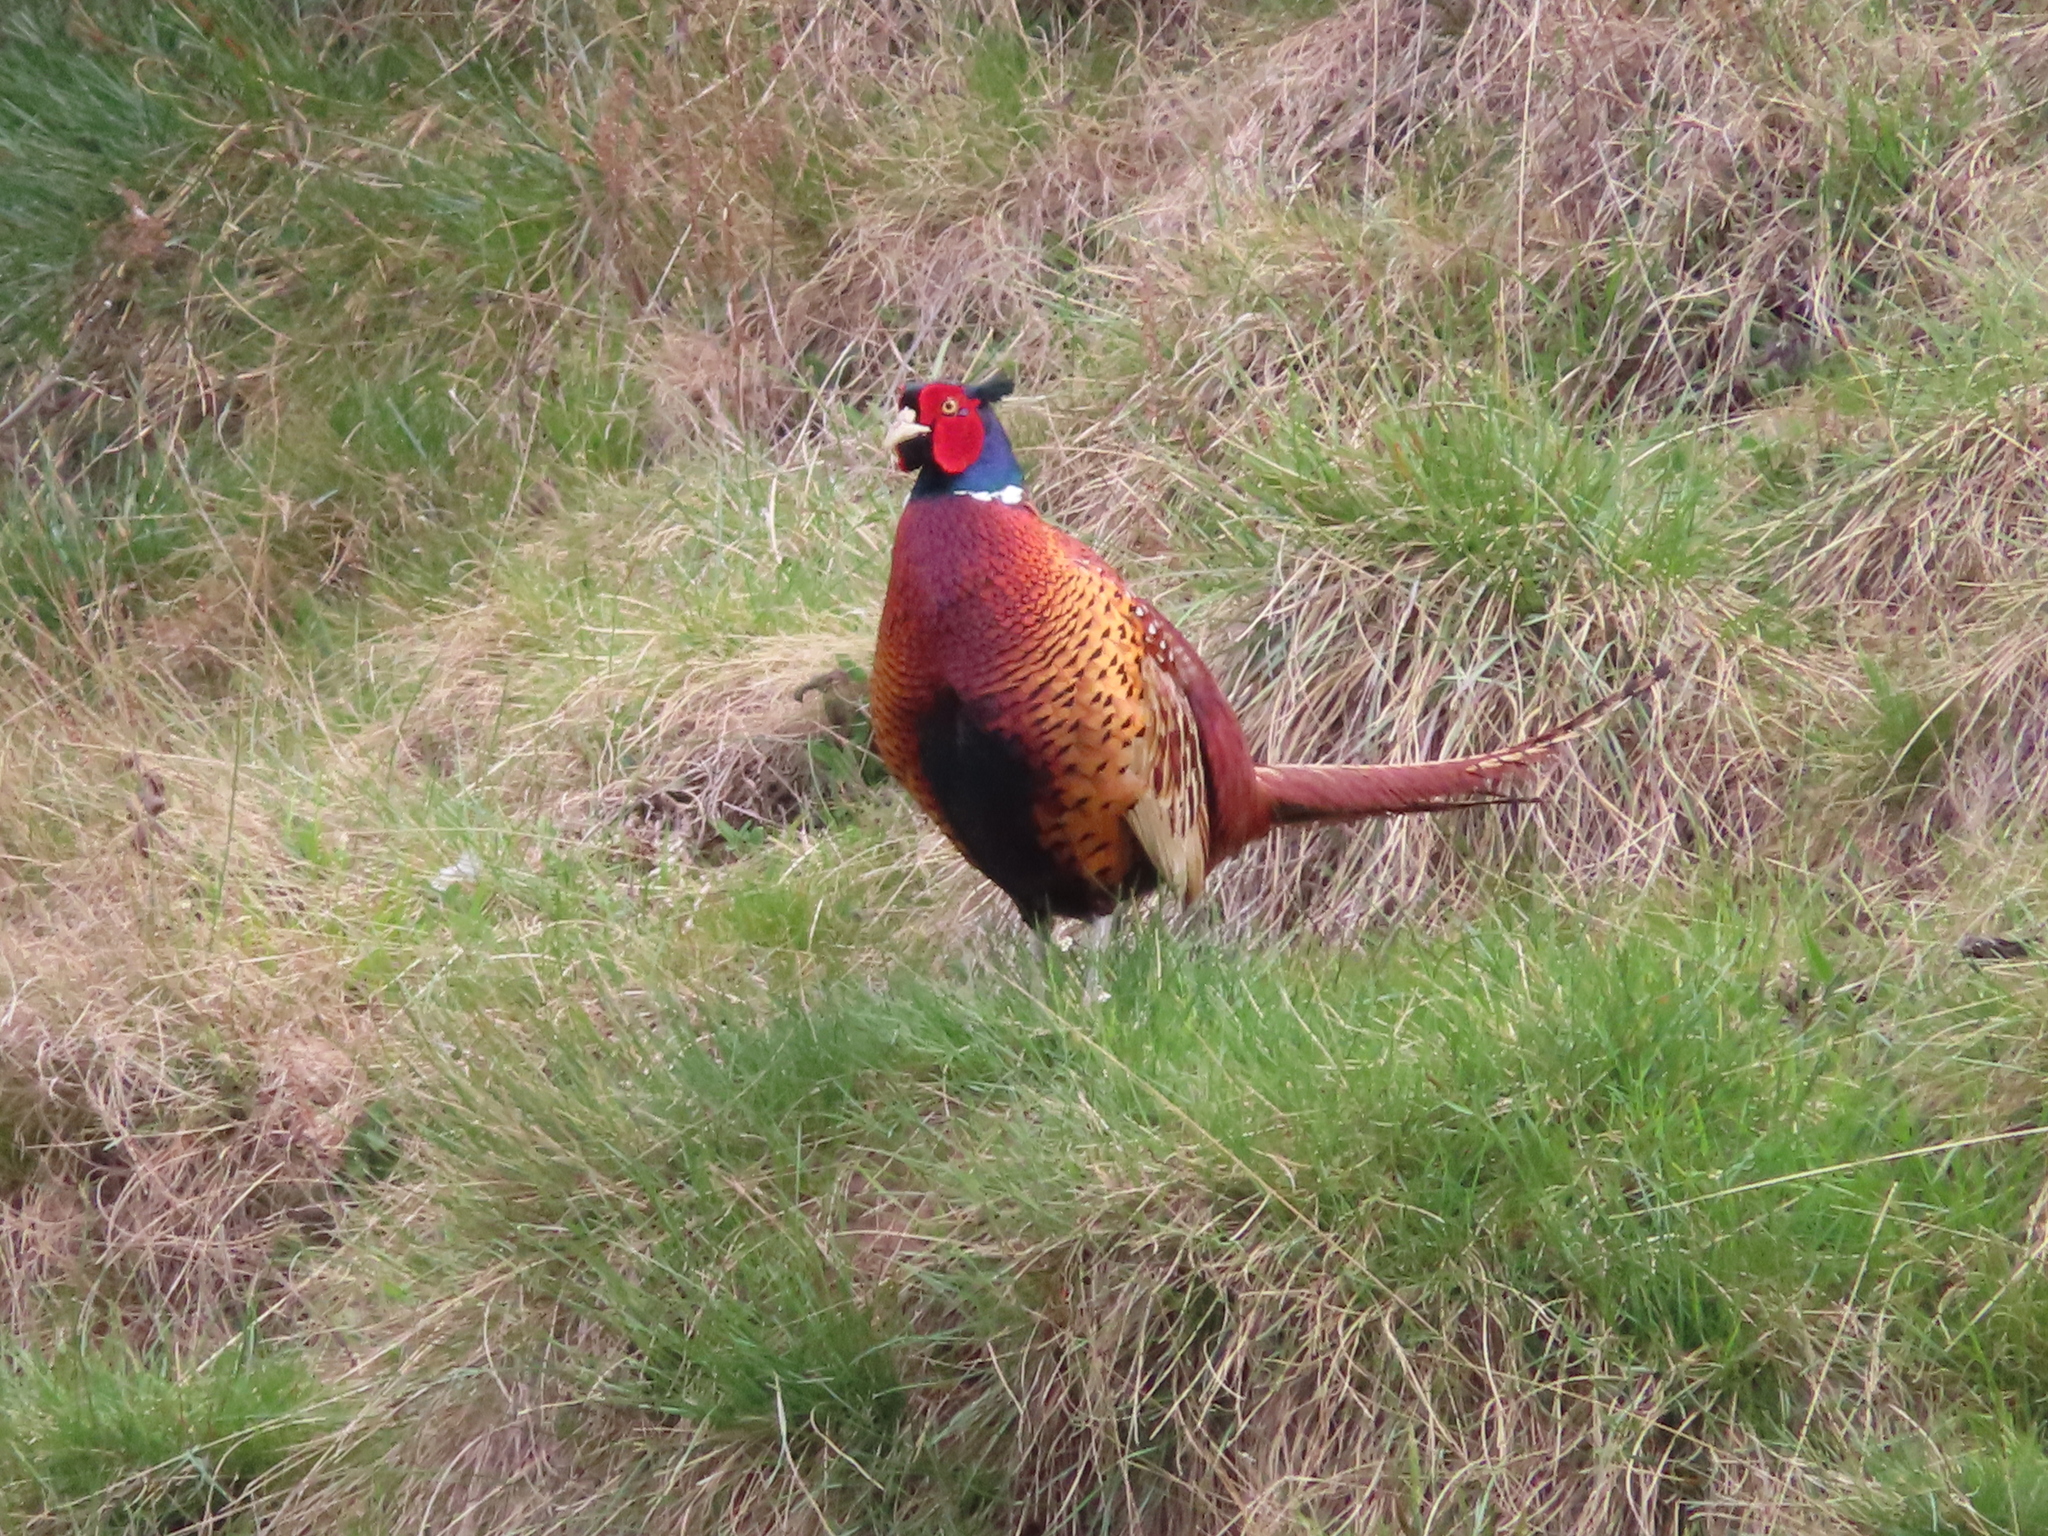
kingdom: Animalia
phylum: Chordata
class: Aves
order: Galliformes
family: Phasianidae
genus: Phasianus
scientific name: Phasianus colchicus
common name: Common pheasant
